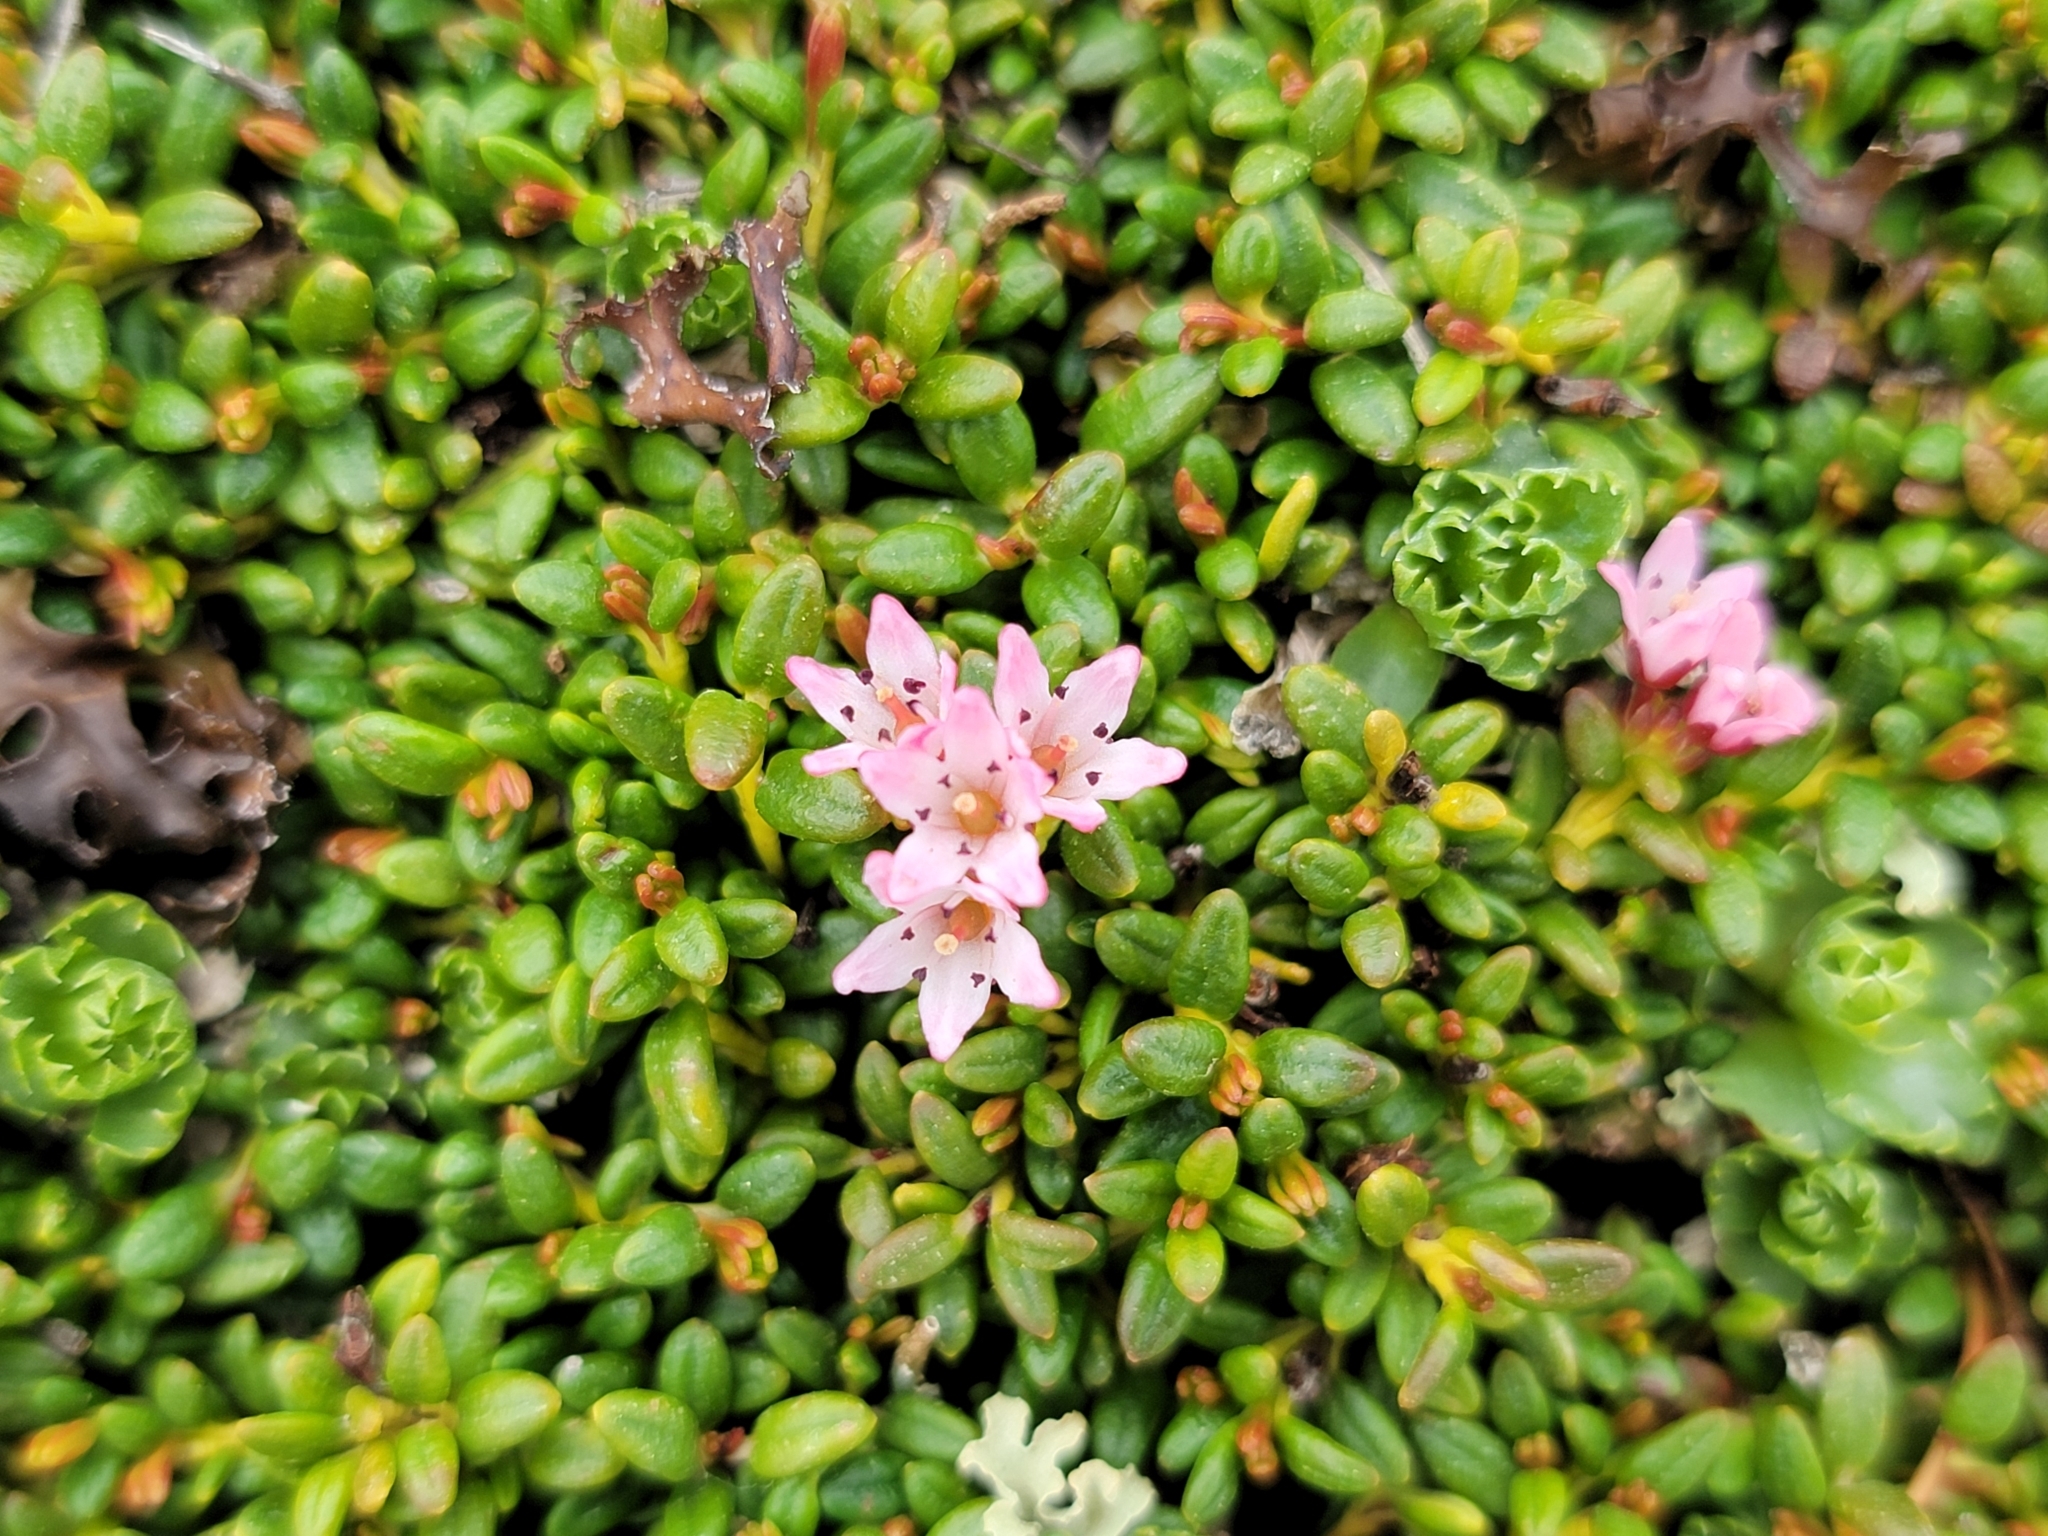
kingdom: Plantae
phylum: Tracheophyta
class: Magnoliopsida
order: Ericales
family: Ericaceae
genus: Kalmia
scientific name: Kalmia procumbens
